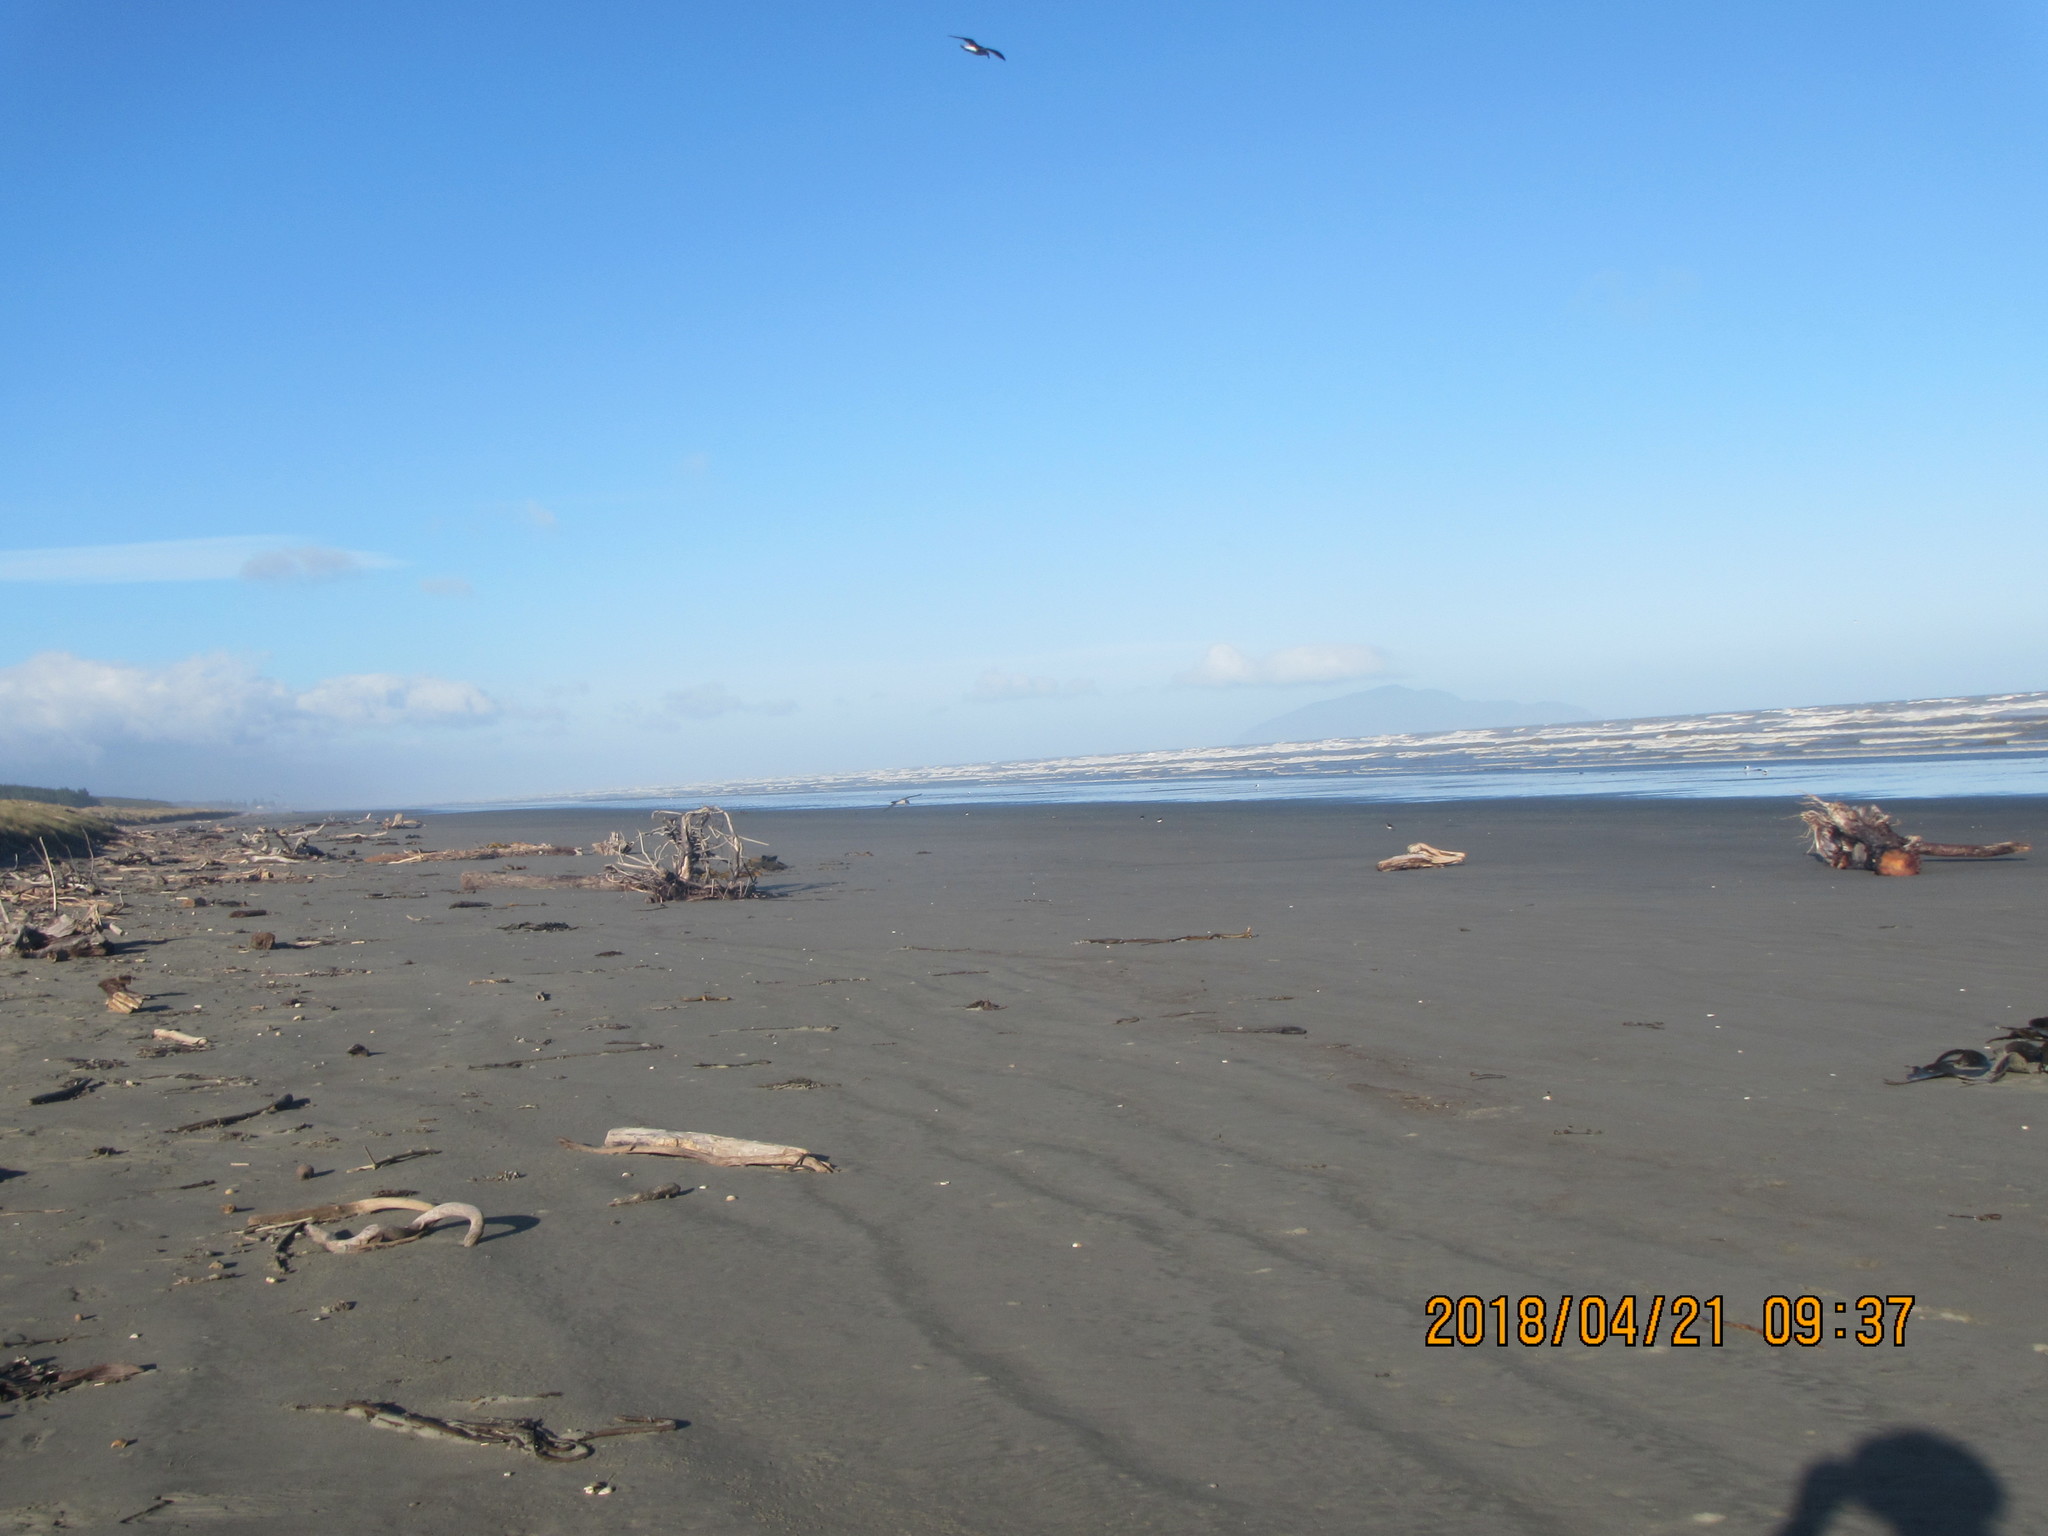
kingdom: Animalia
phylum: Chordata
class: Aves
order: Procellariiformes
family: Procellariidae
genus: Pachyptila
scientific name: Pachyptila turtur
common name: Fairy prion
